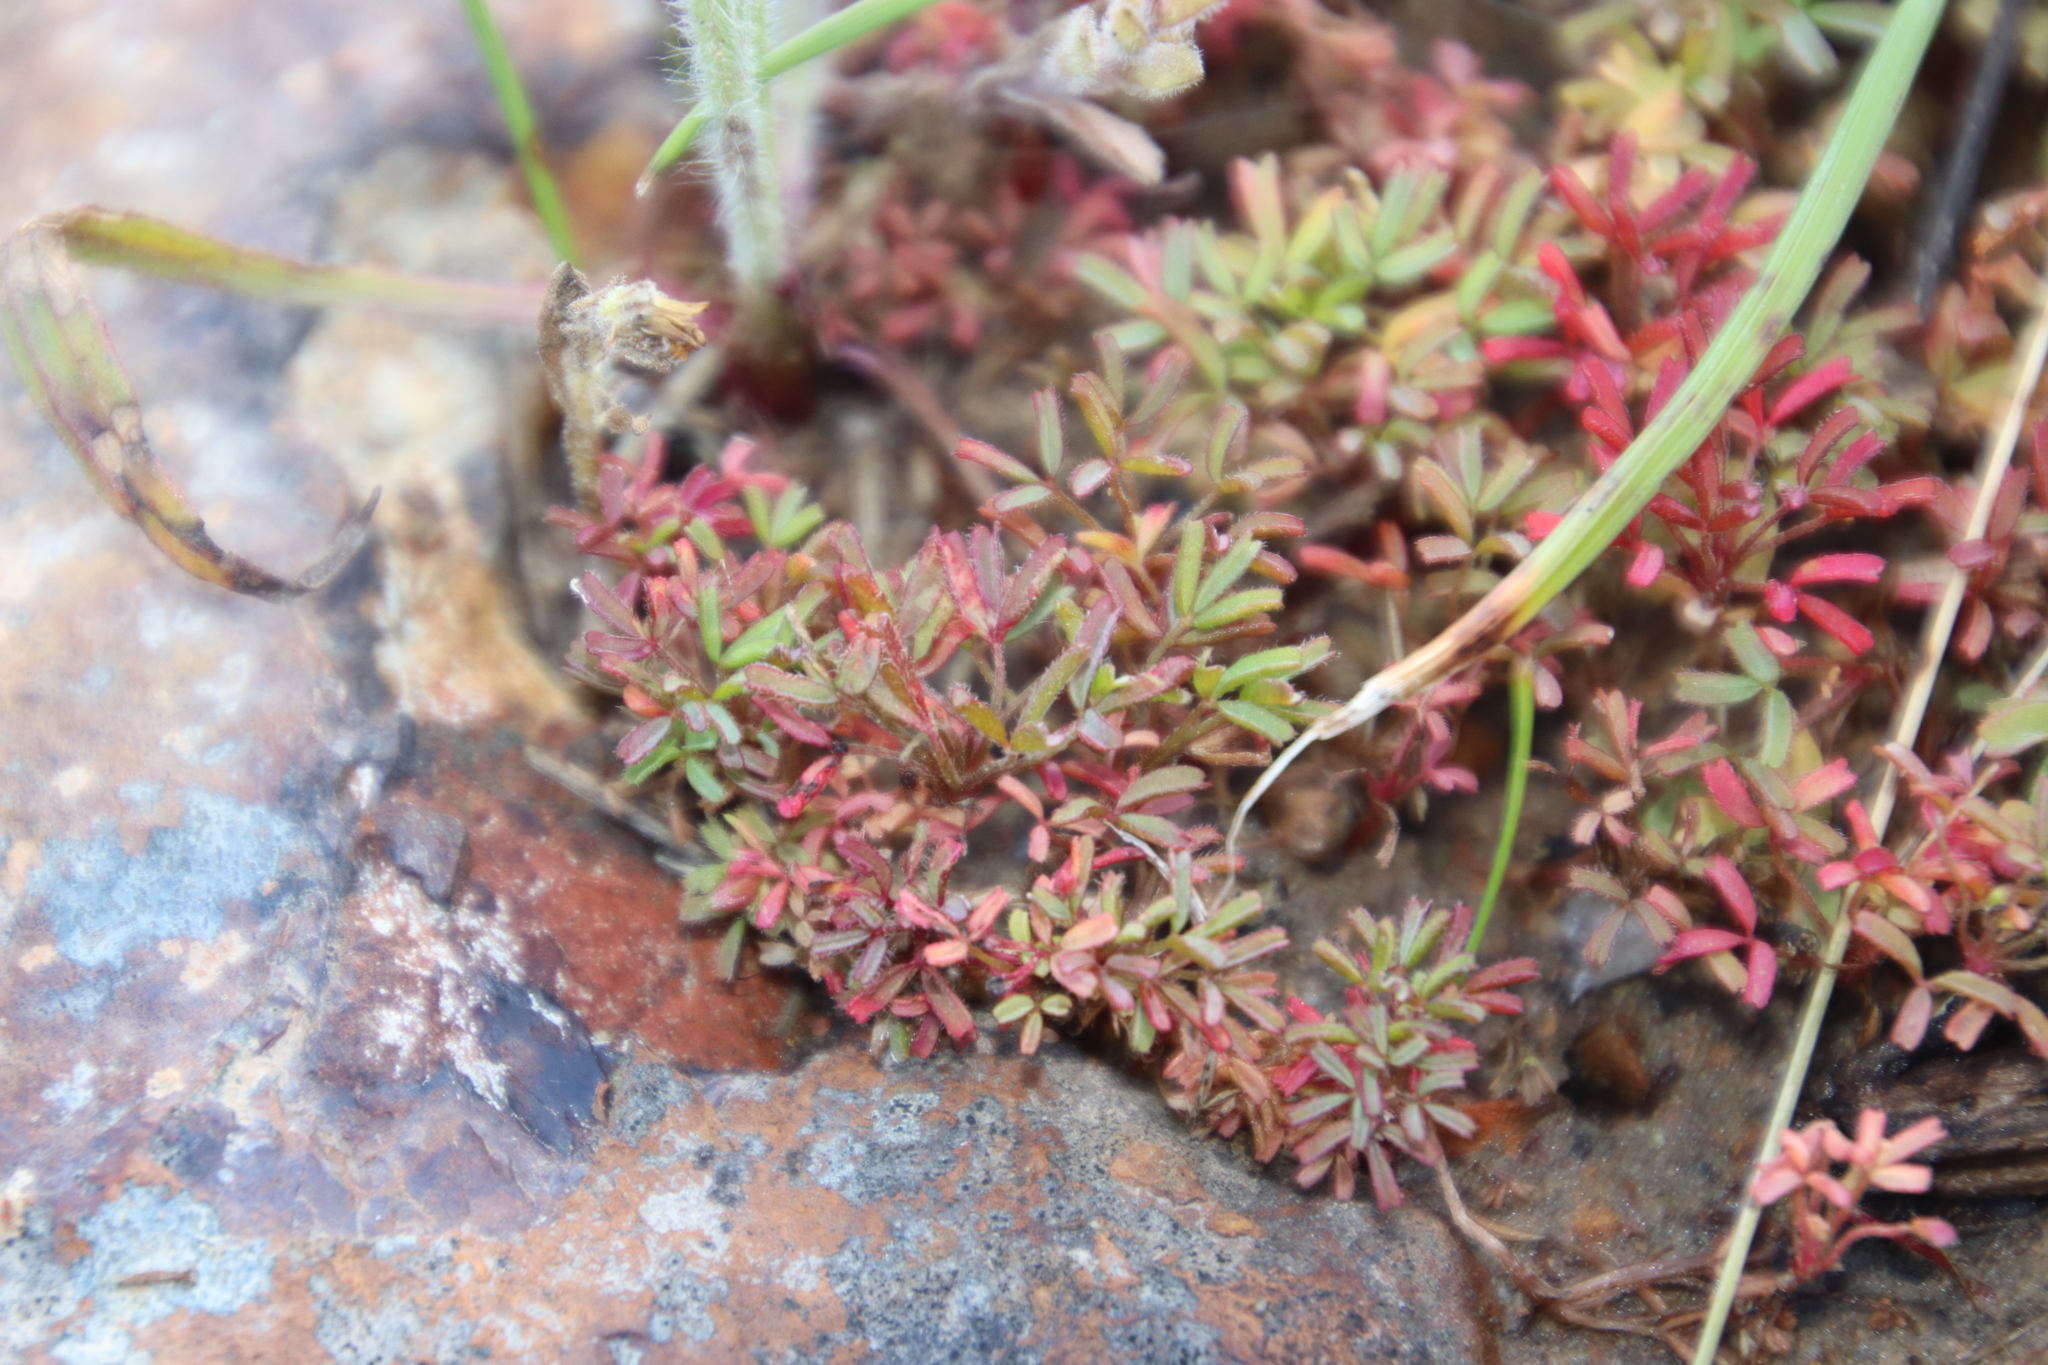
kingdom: Plantae
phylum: Tracheophyta
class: Magnoliopsida
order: Oxalidales
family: Oxalidaceae
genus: Oxalis
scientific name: Oxalis glabra
